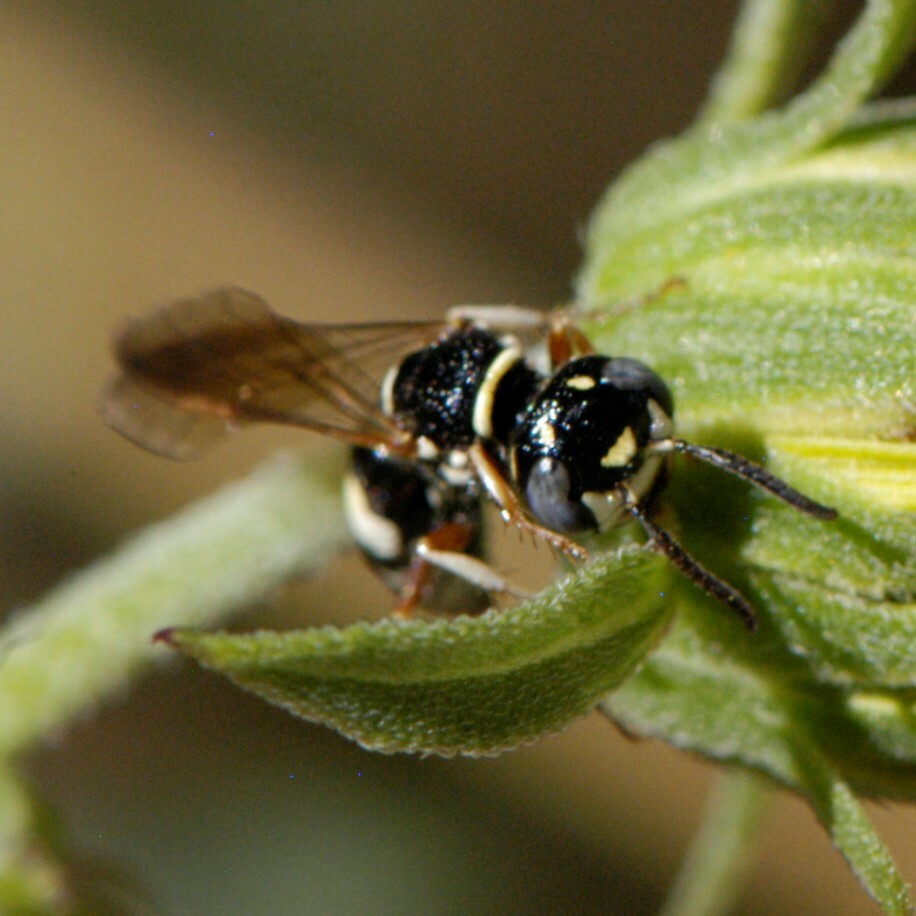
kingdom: Animalia
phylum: Arthropoda
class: Insecta
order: Hymenoptera
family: Crabronidae
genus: Philanthus
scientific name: Philanthus gibbosus
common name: Humped beewolf
